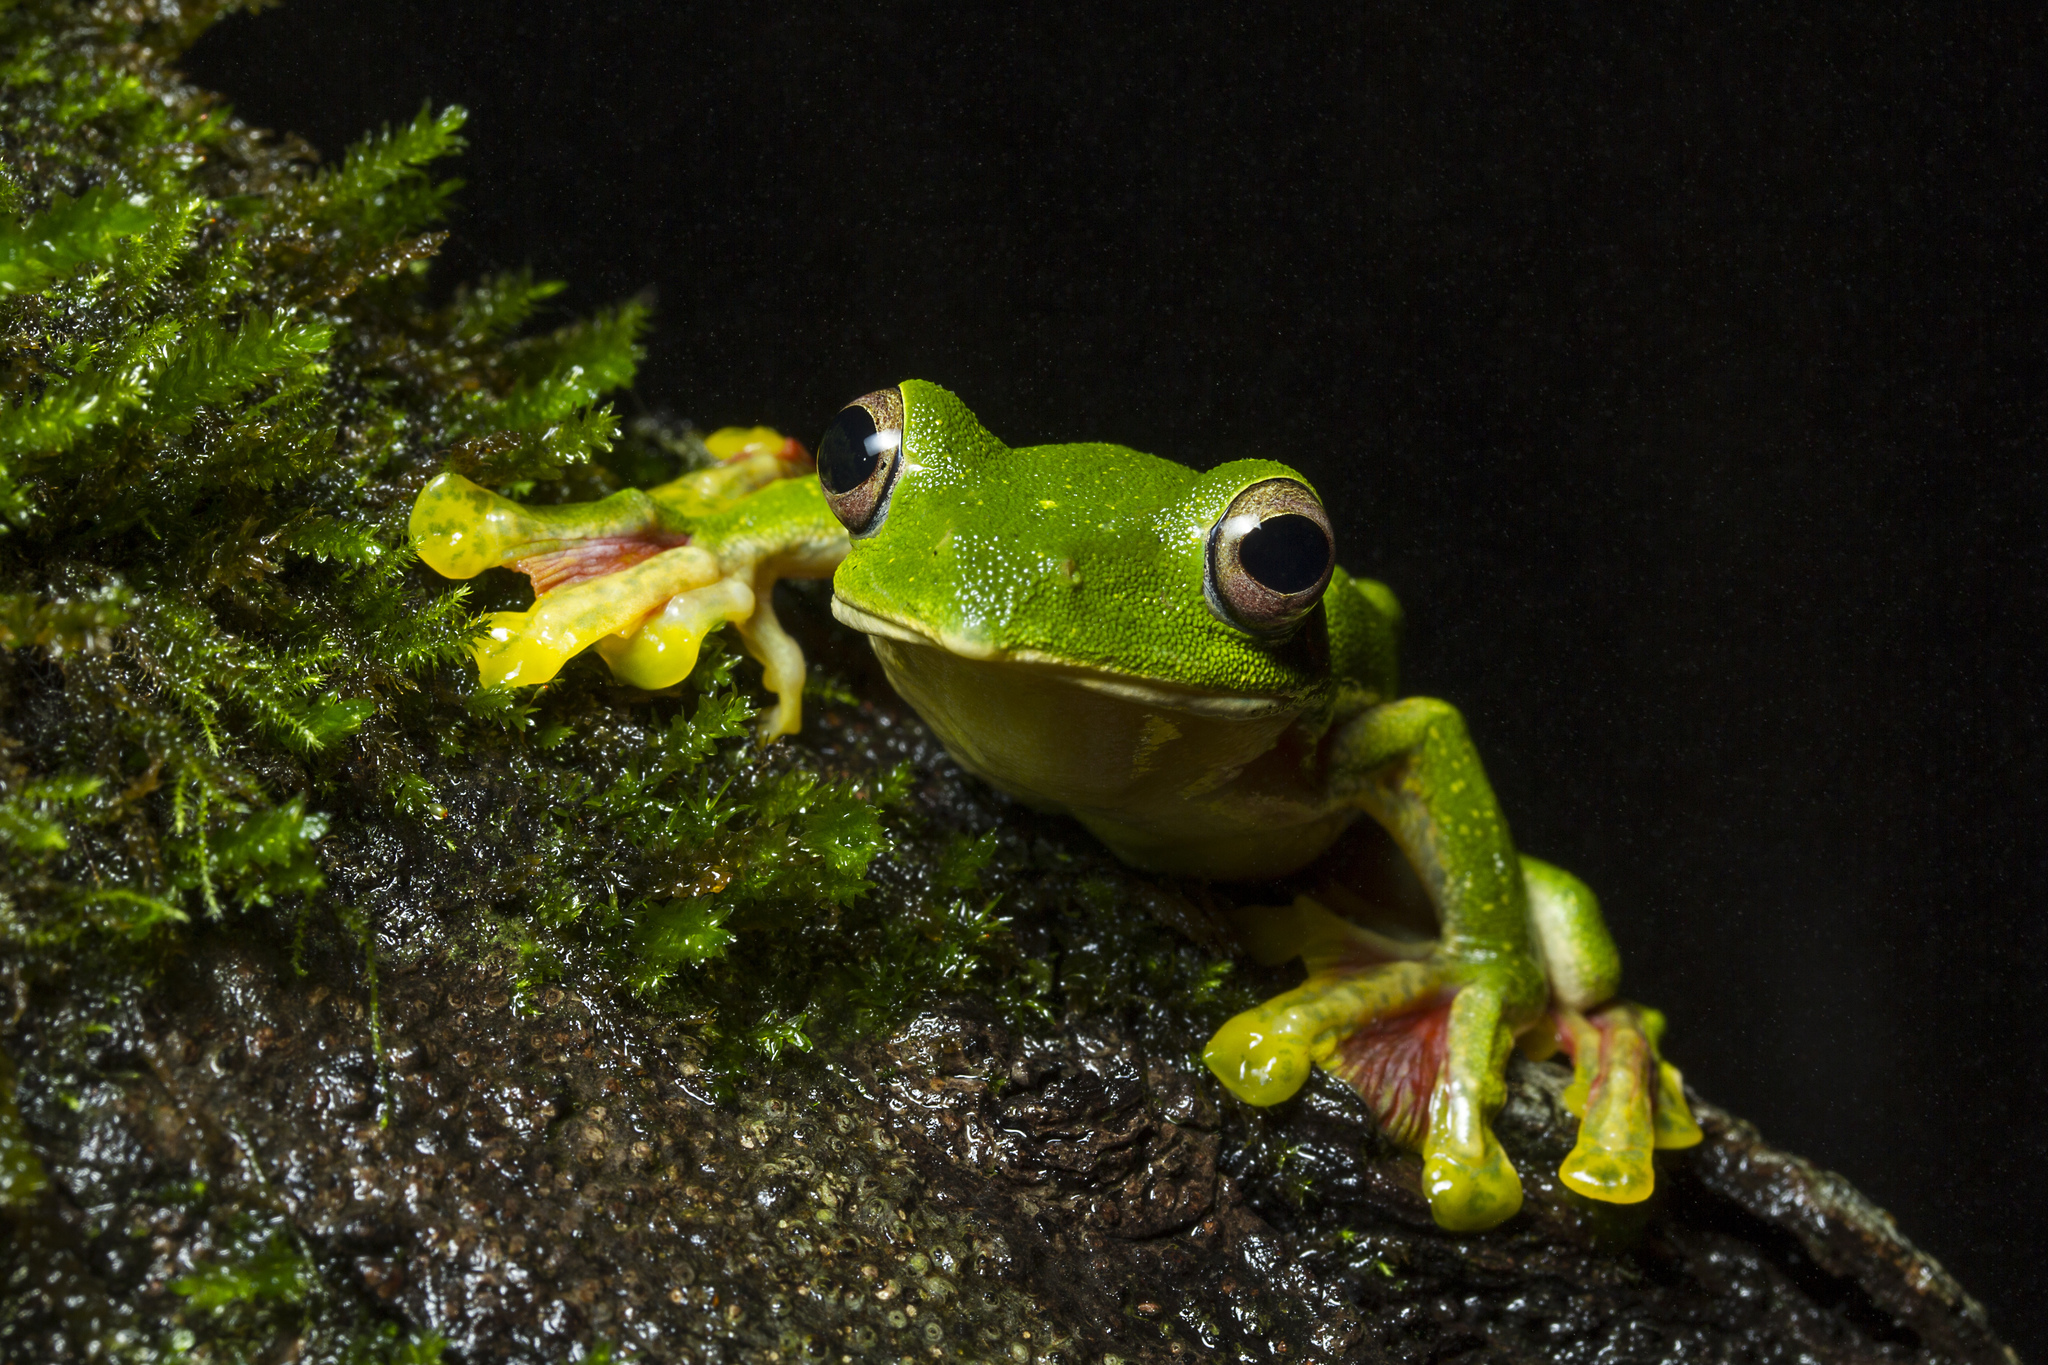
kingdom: Animalia
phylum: Chordata
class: Amphibia
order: Anura
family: Rhacophoridae
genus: Rhacophorus
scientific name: Rhacophorus malabaricus
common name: Malabar gliding frog
